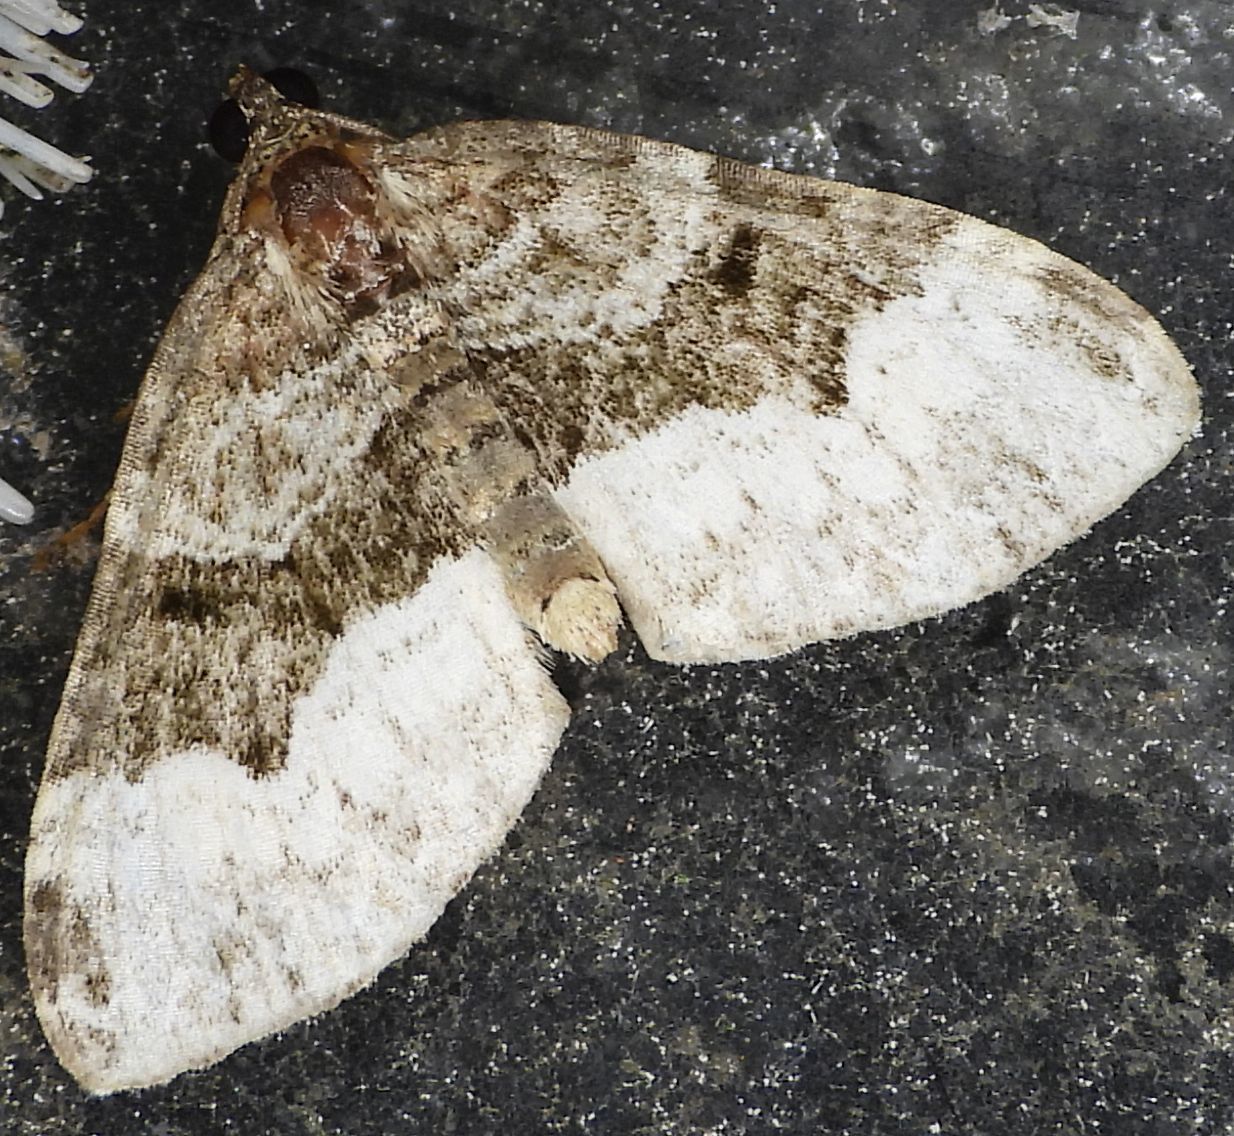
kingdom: Animalia
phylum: Arthropoda
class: Insecta
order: Lepidoptera
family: Geometridae
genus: Euphyia
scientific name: Euphyia intermediata
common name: Sharp-angled carpet
